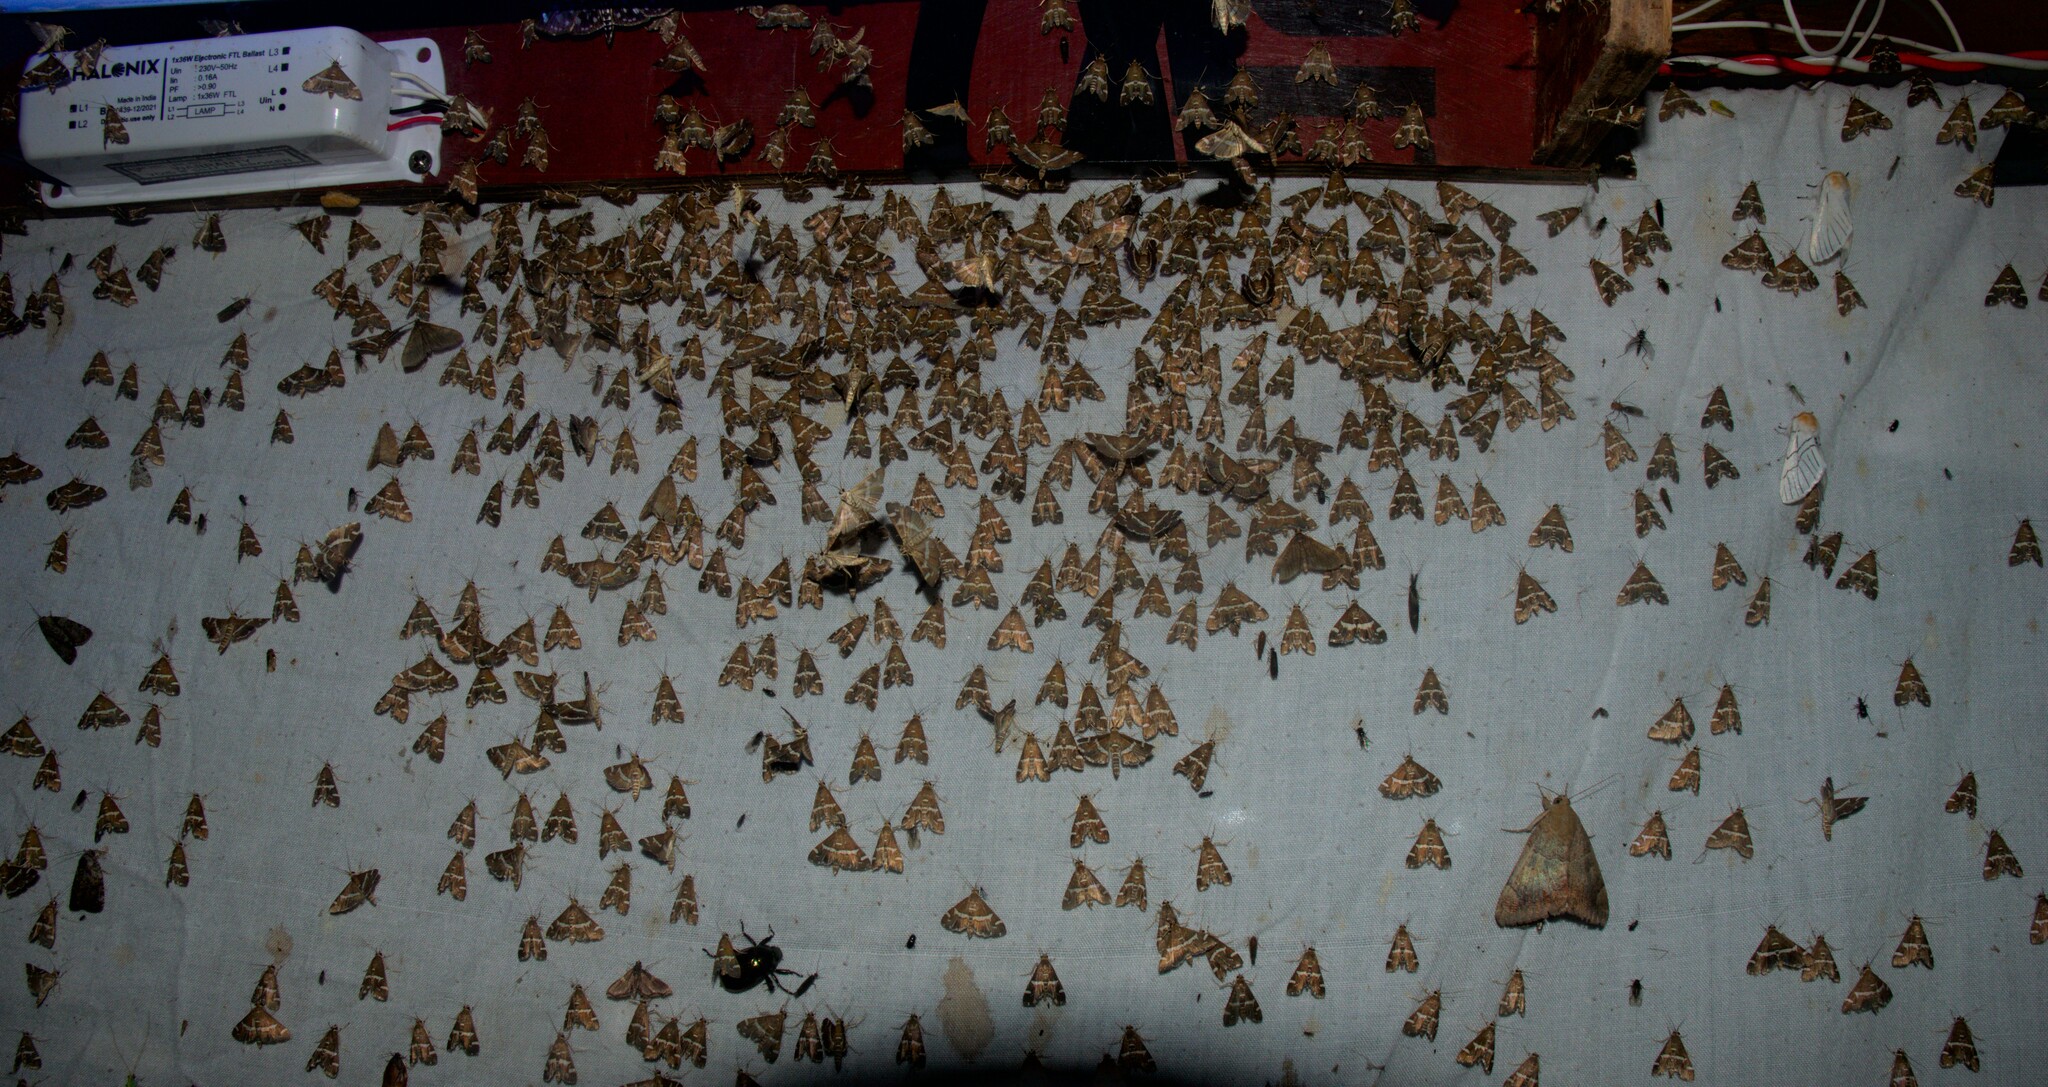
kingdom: Animalia
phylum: Arthropoda
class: Insecta
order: Lepidoptera
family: Crambidae
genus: Spoladea
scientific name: Spoladea recurvalis
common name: Beet webworm moth
